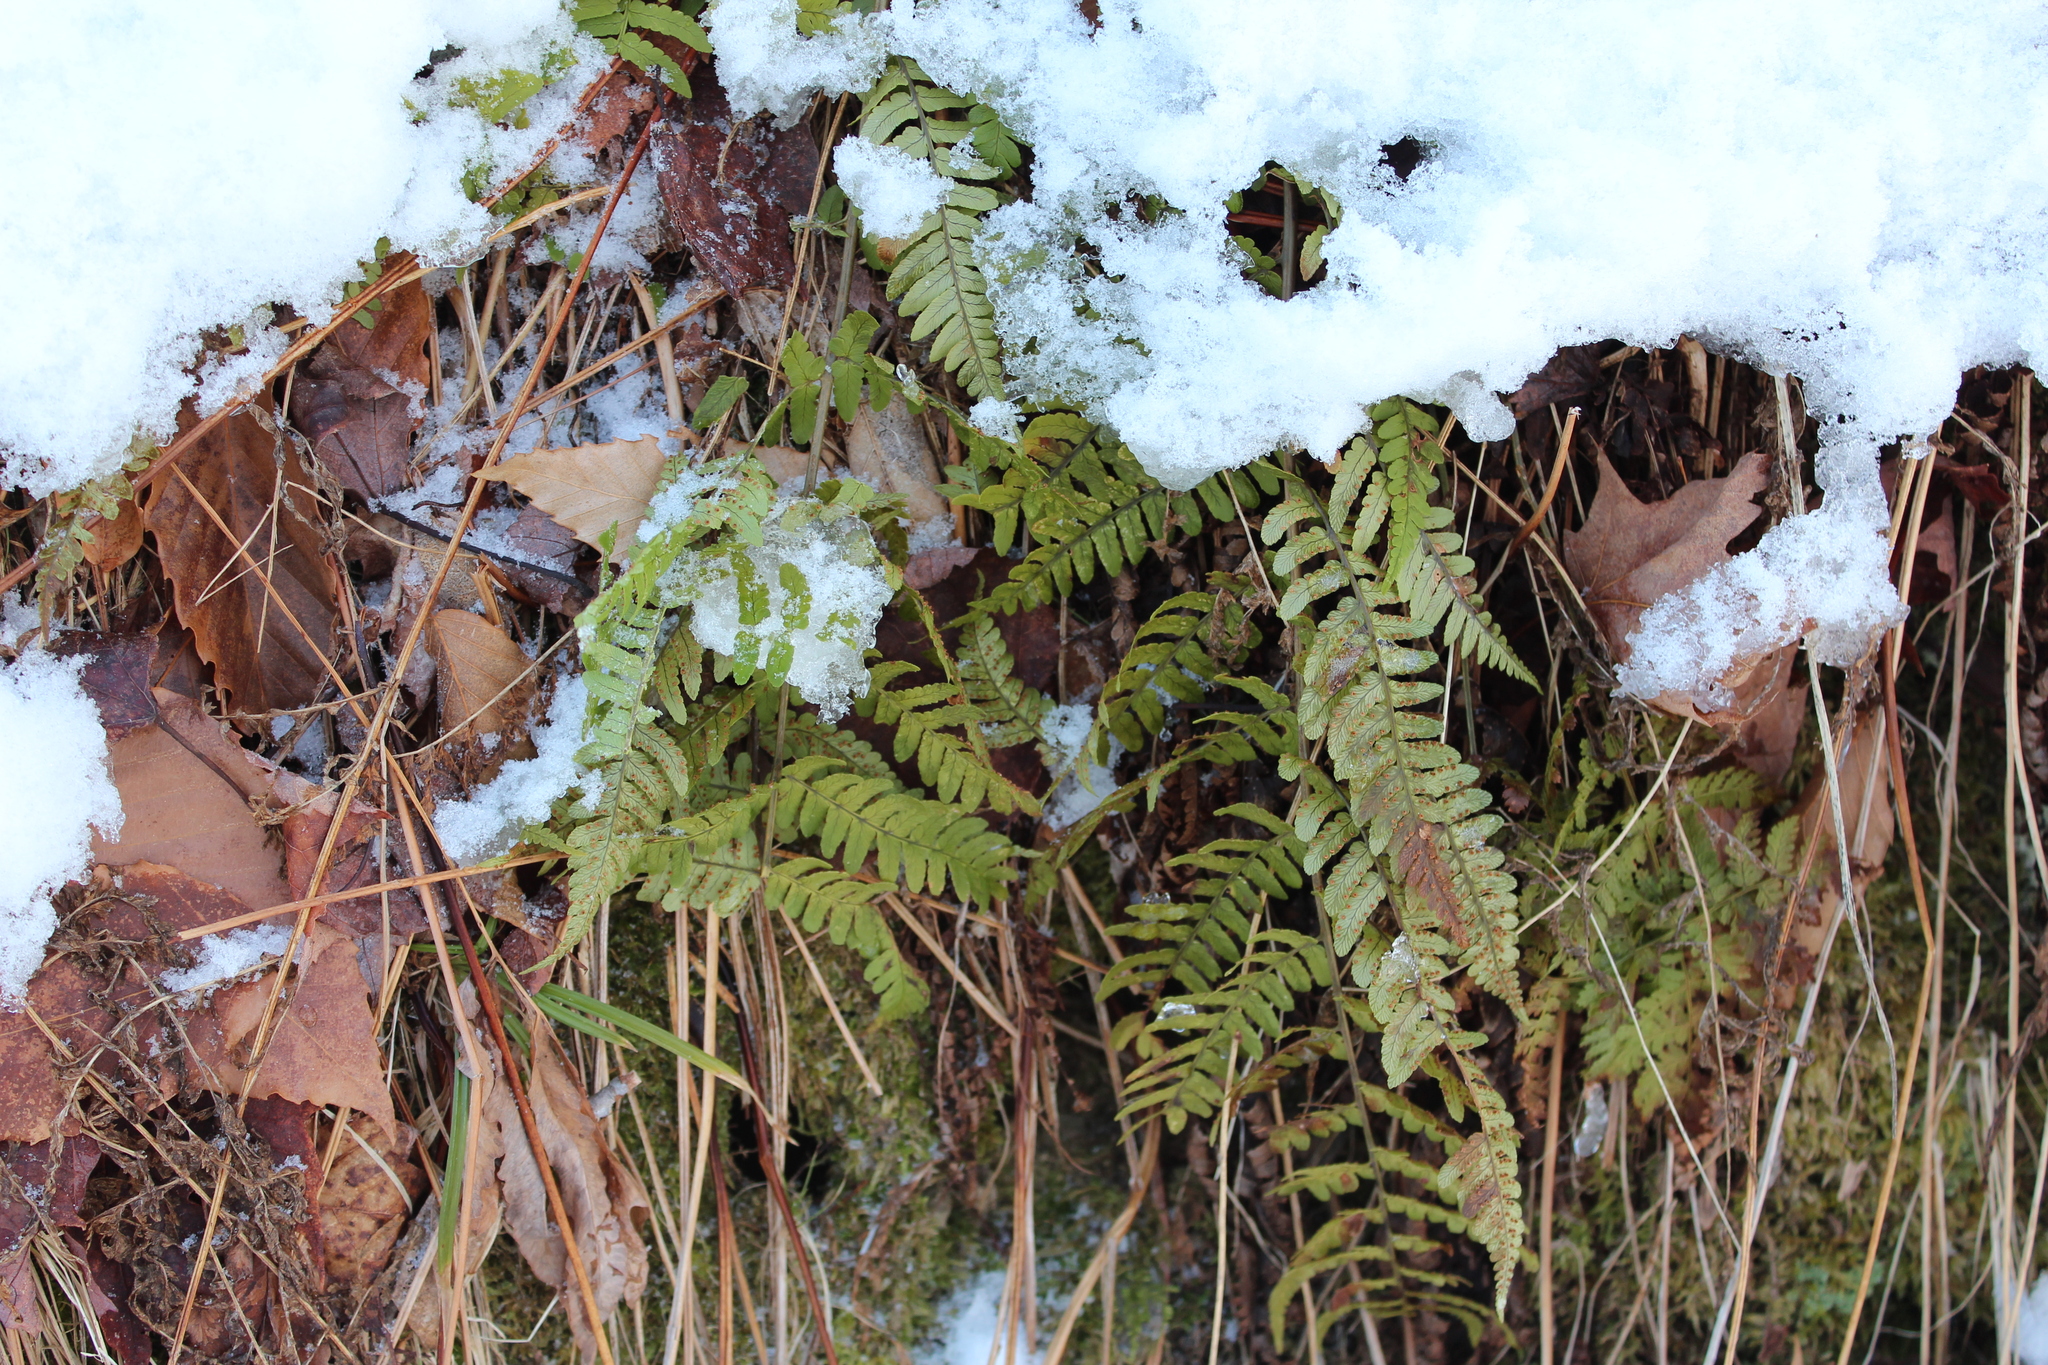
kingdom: Plantae
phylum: Tracheophyta
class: Polypodiopsida
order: Polypodiales
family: Dryopteridaceae
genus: Dryopteris
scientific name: Dryopteris marginalis
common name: Marginal wood fern
